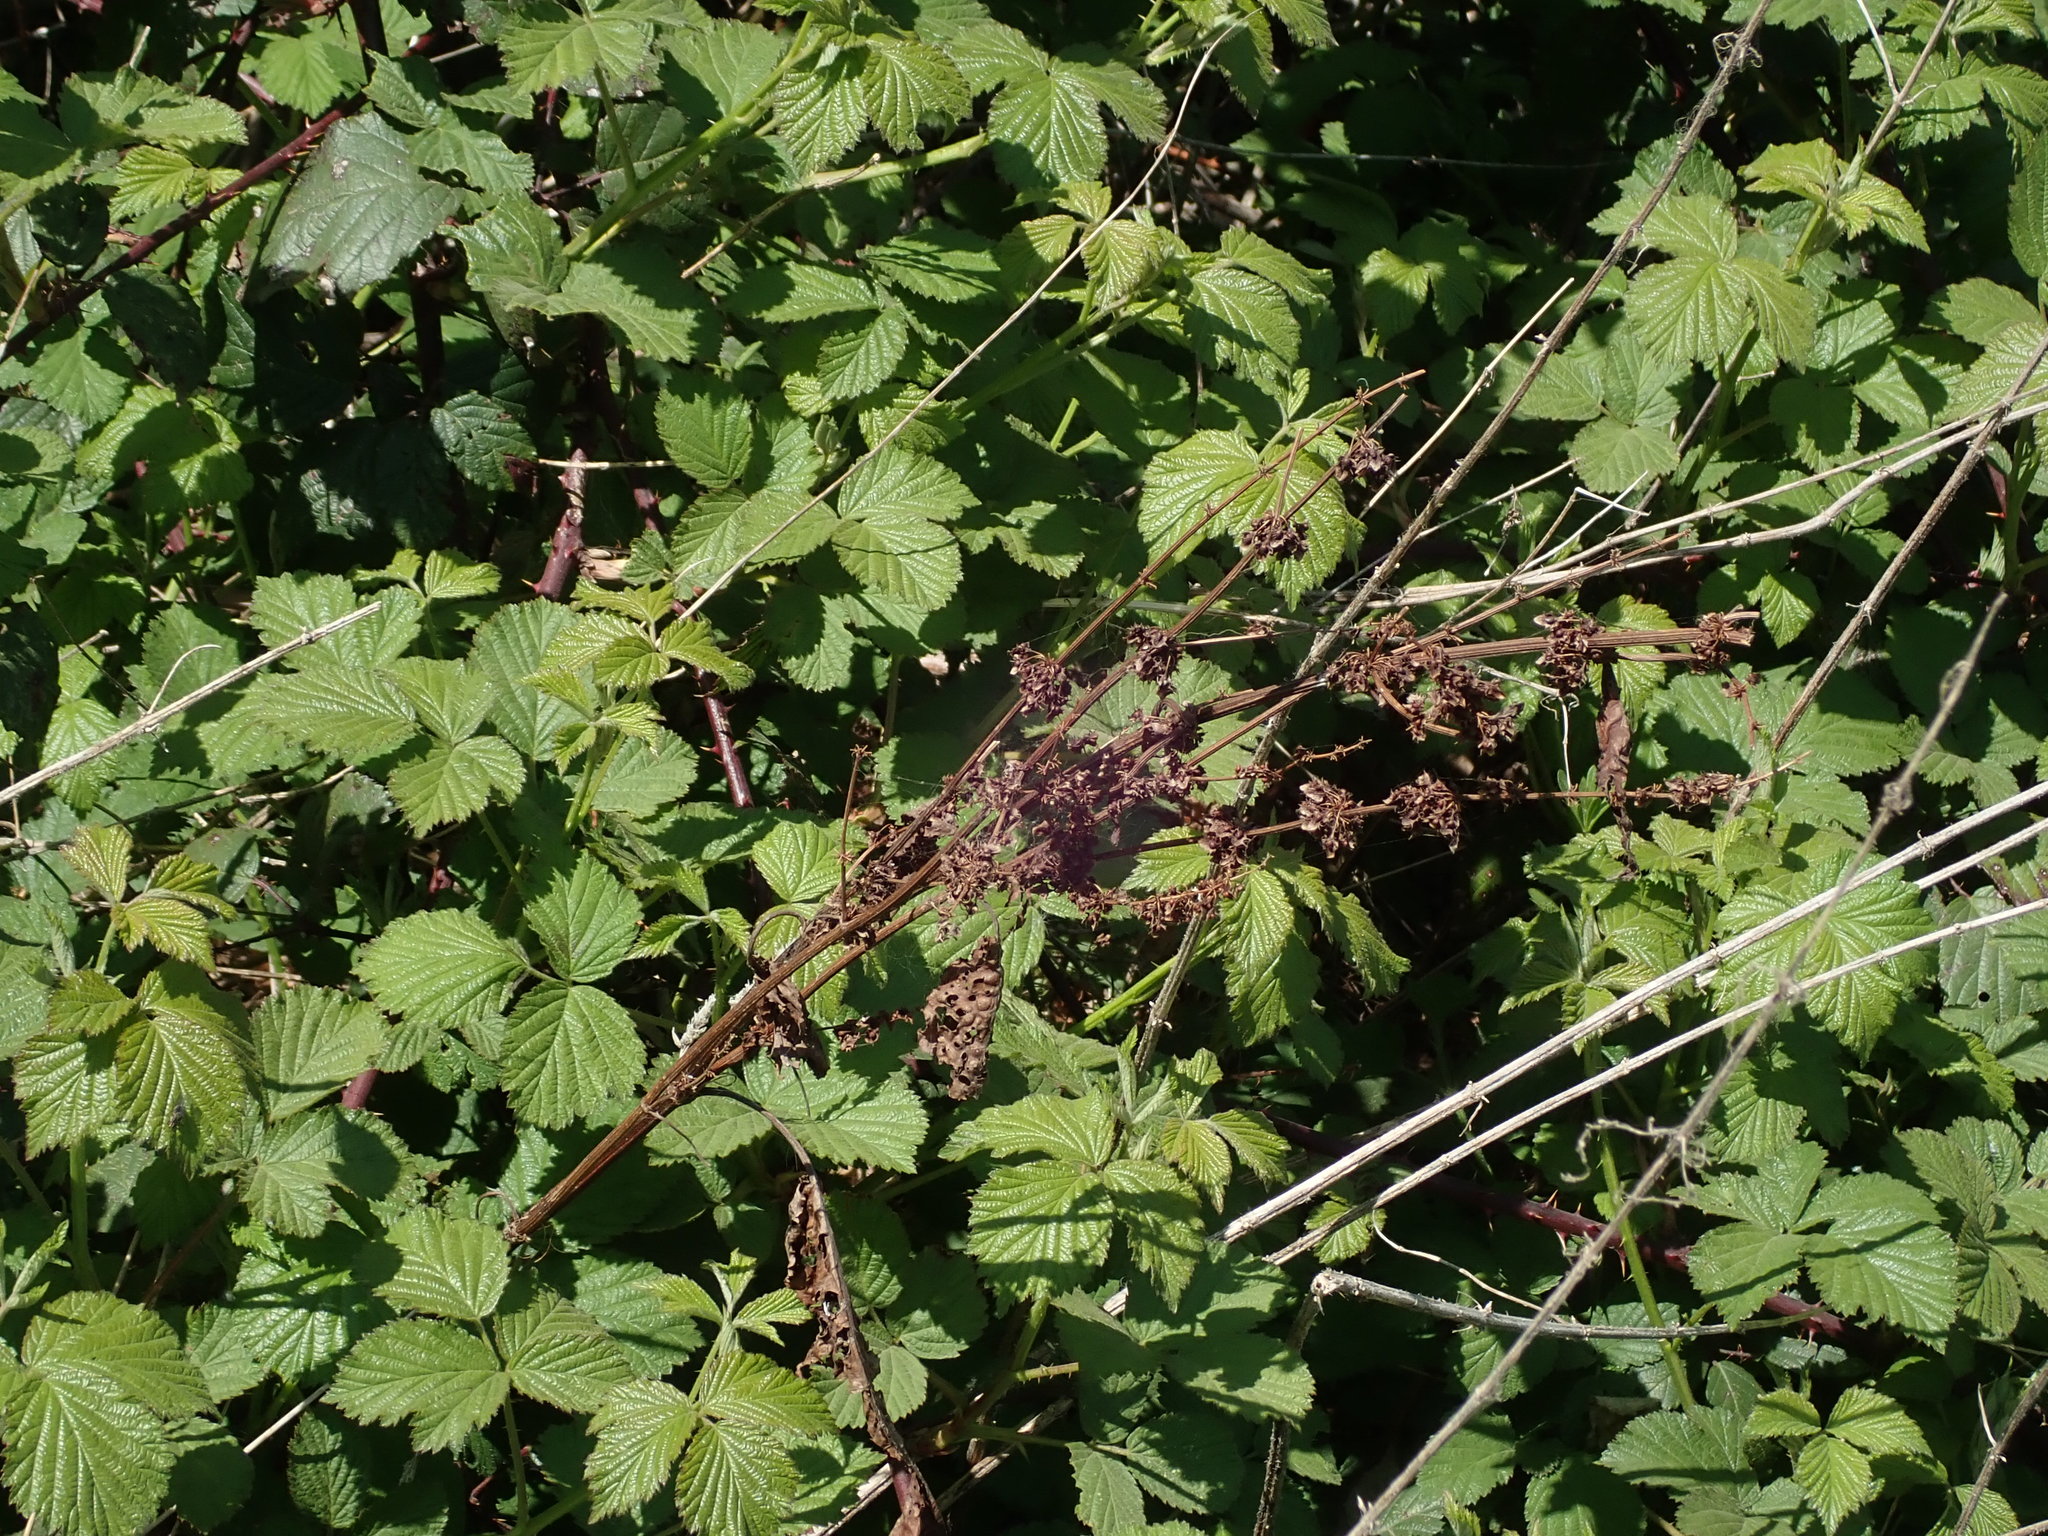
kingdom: Plantae
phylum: Tracheophyta
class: Magnoliopsida
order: Caryophyllales
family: Polygonaceae
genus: Rumex
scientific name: Rumex obtusifolius
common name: Bitter dock
